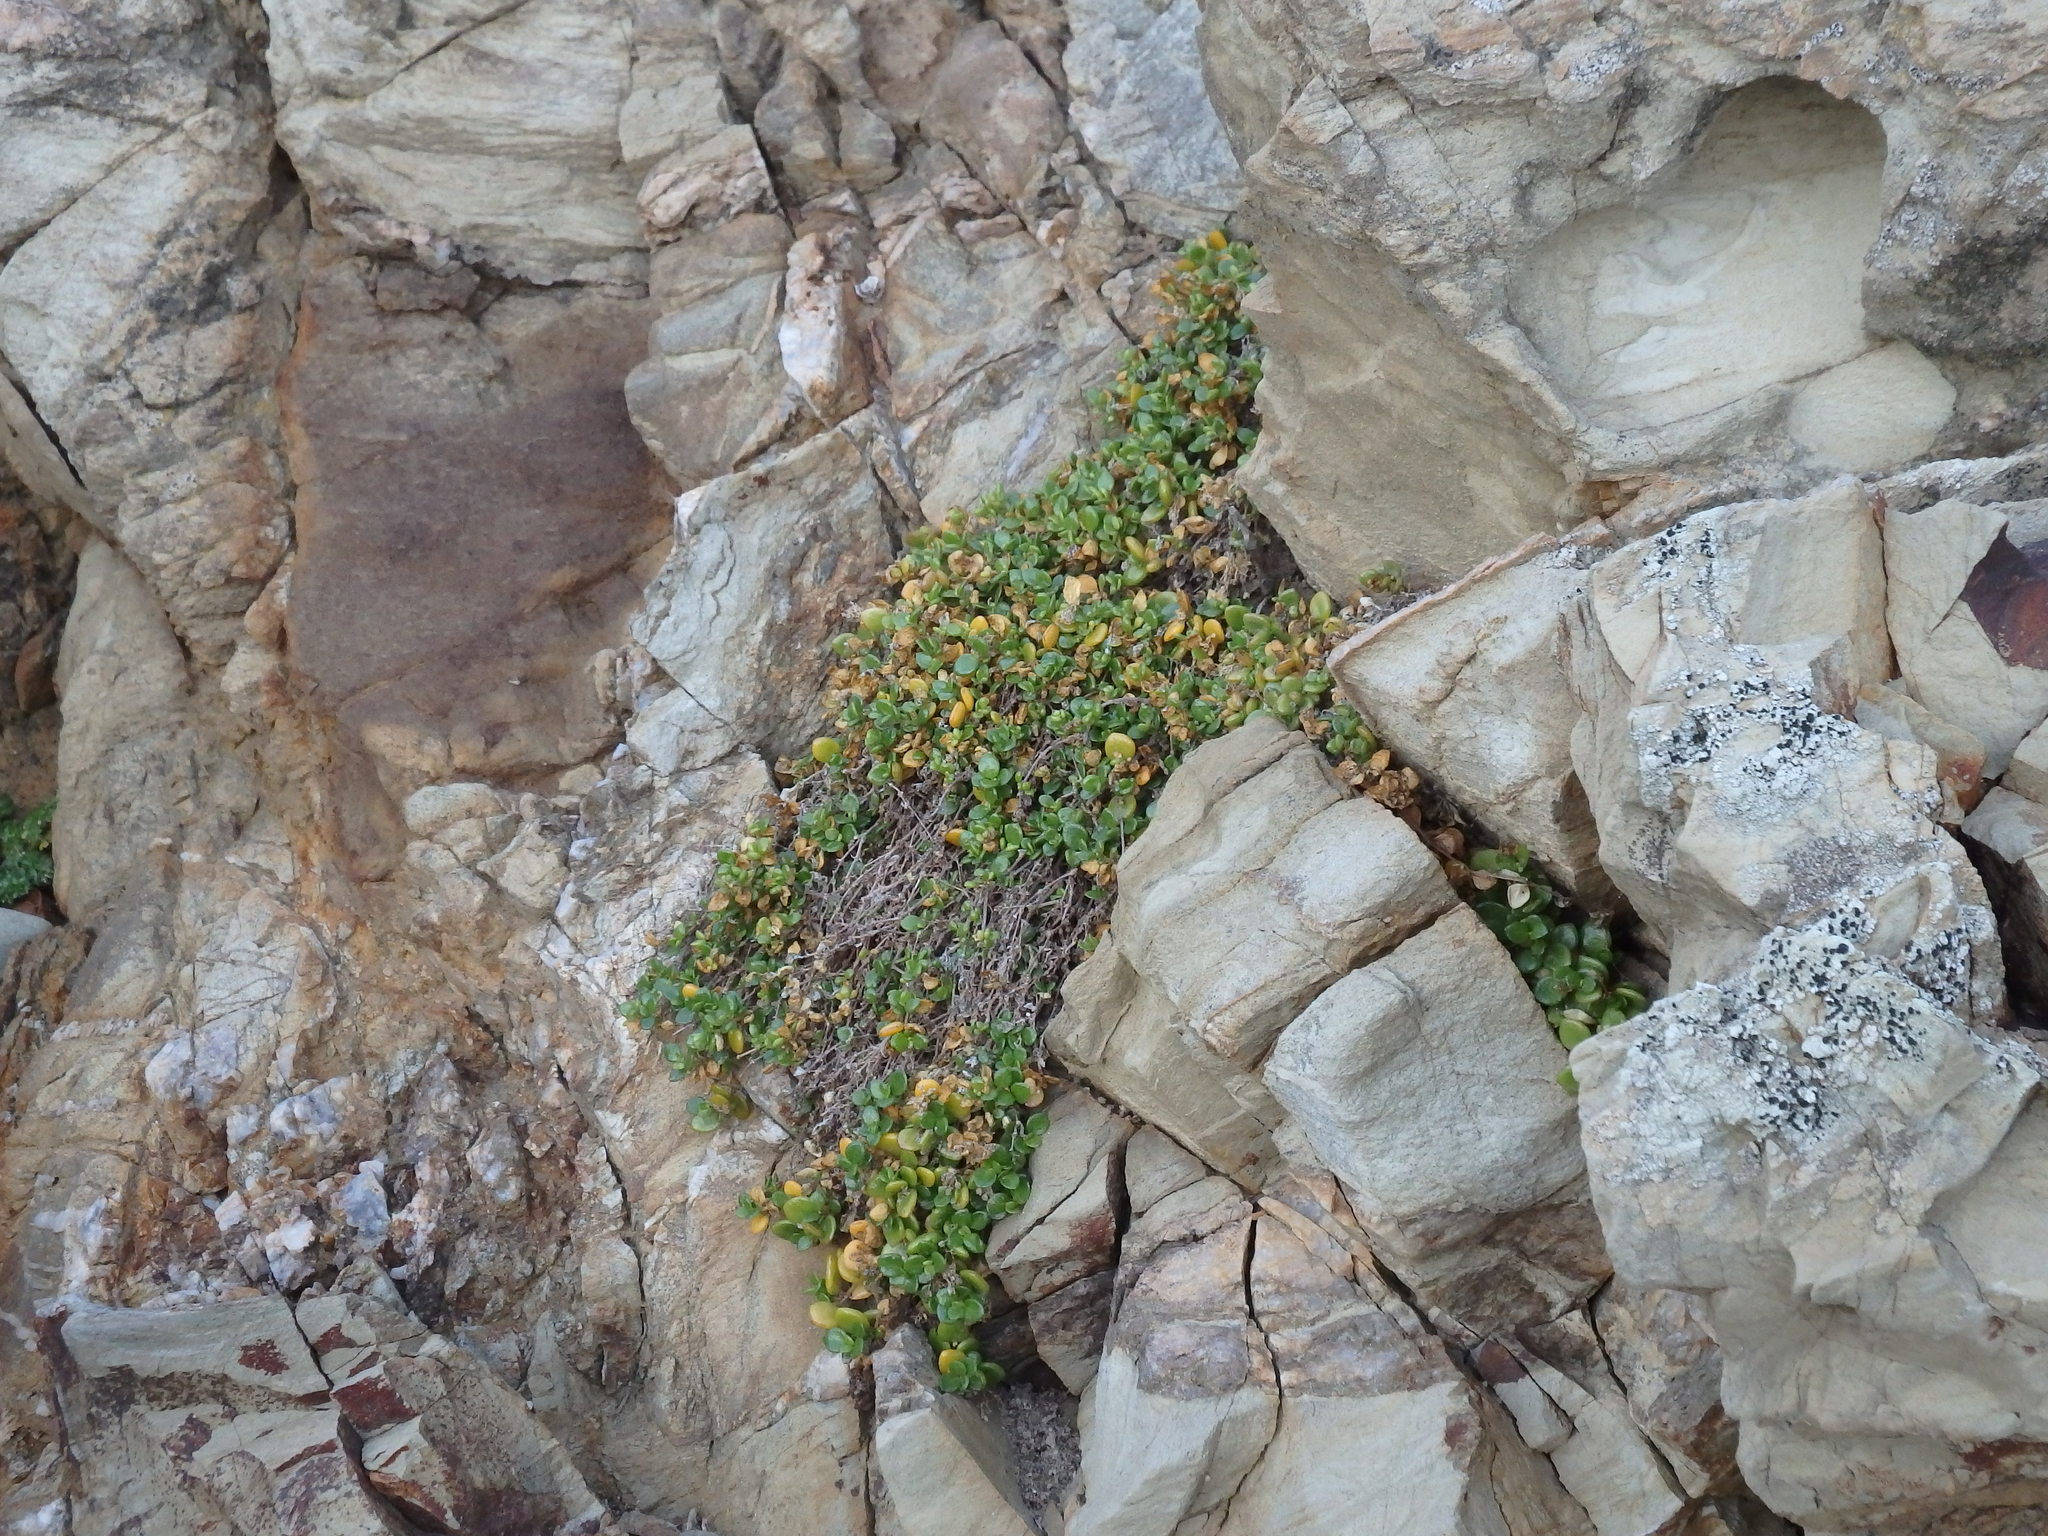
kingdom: Plantae
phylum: Tracheophyta
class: Magnoliopsida
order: Caryophyllales
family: Caryophyllaceae
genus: Polycarpon
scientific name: Polycarpon polycarpoides
